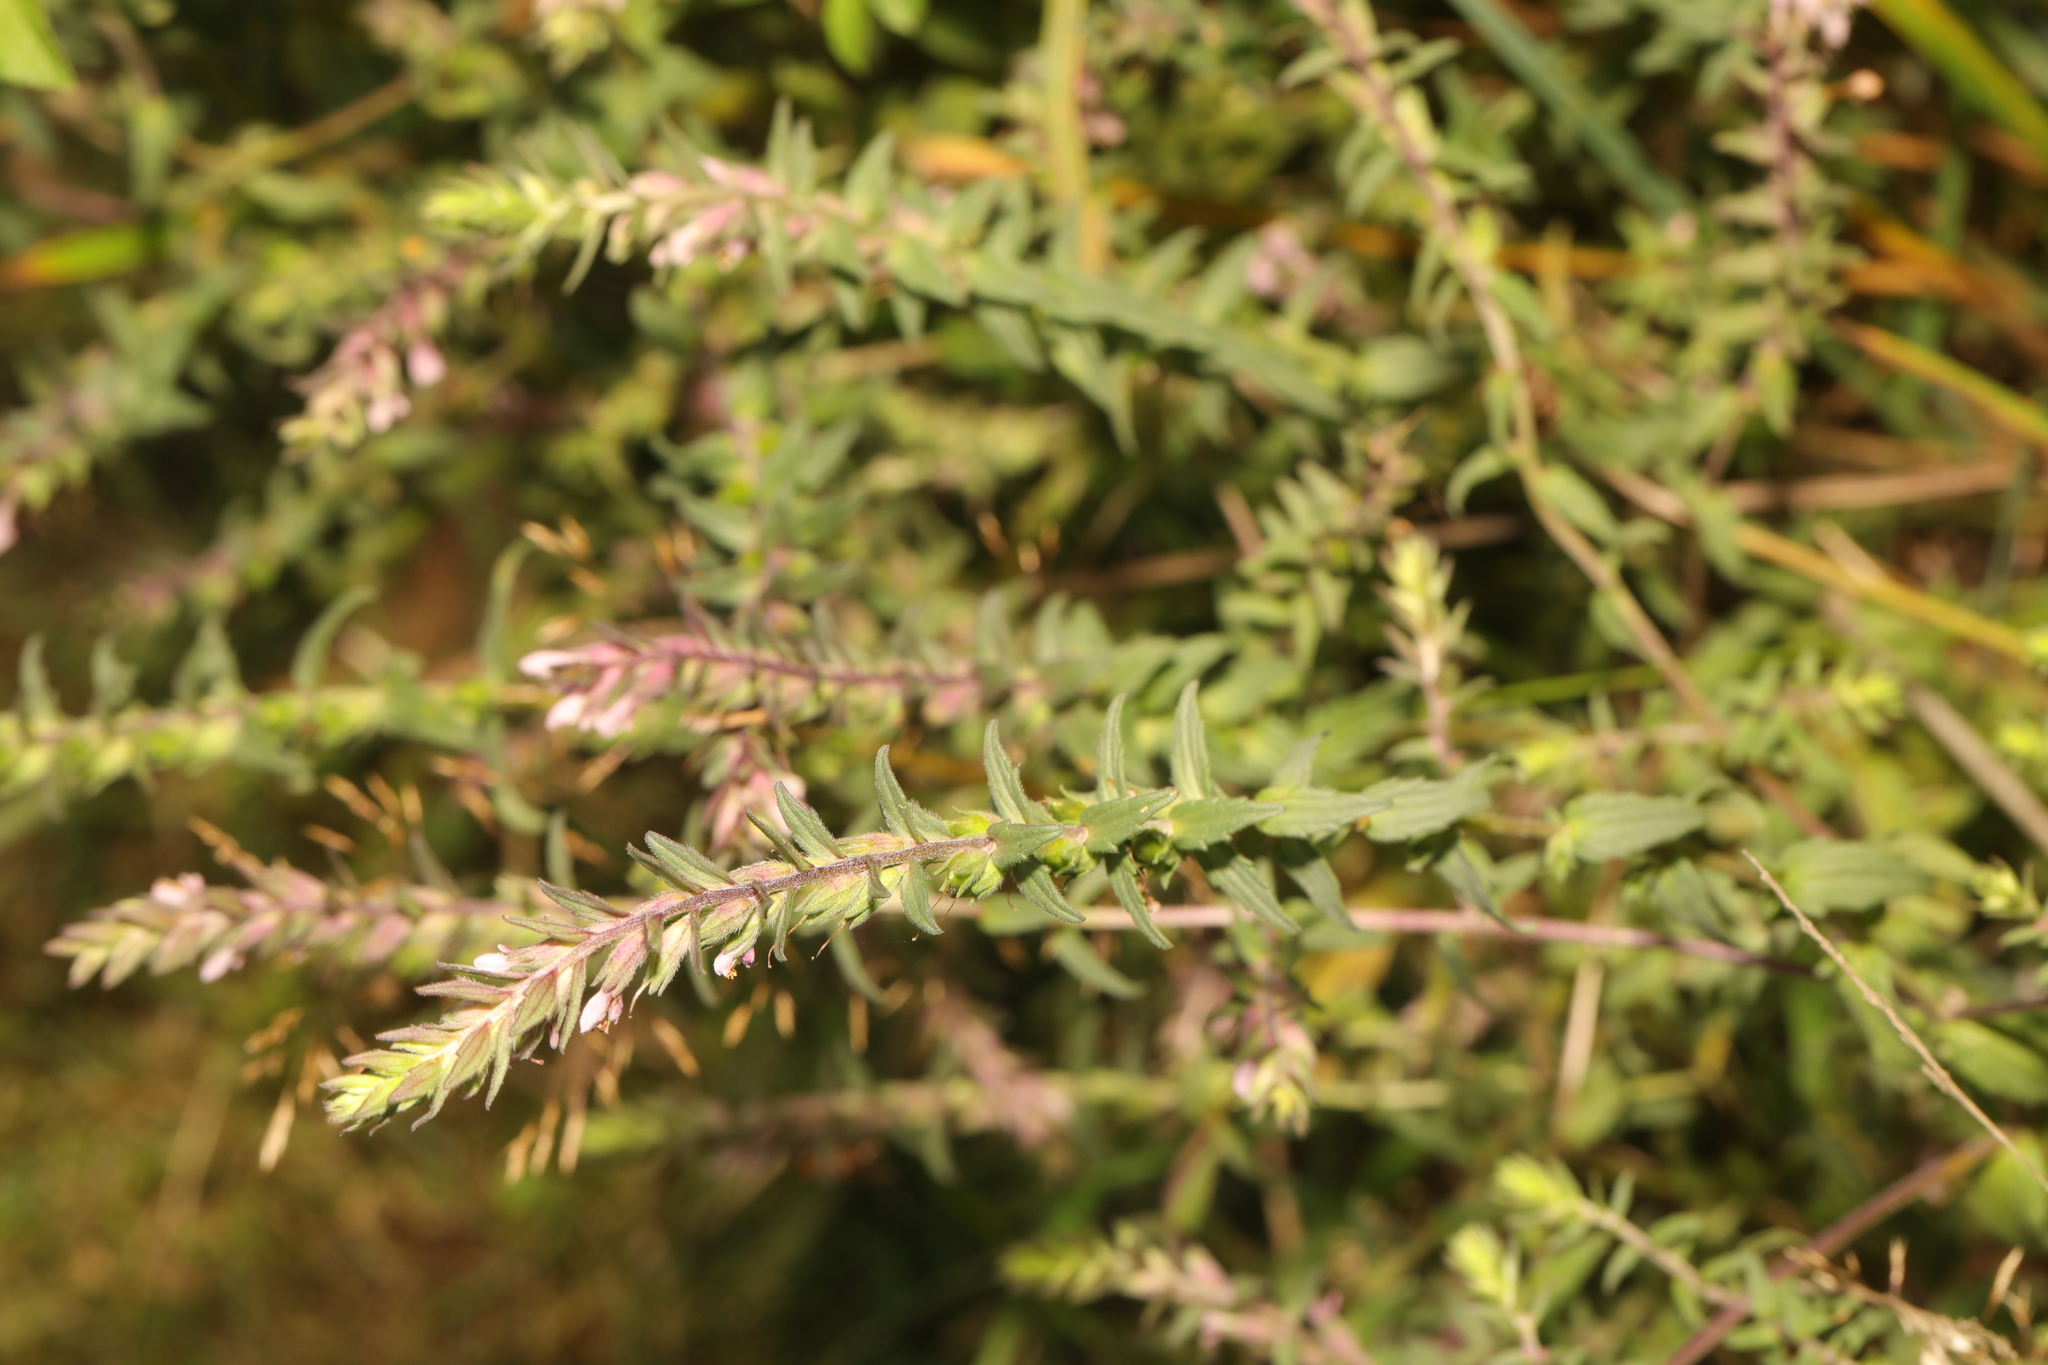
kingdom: Plantae
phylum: Tracheophyta
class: Magnoliopsida
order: Lamiales
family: Orobanchaceae
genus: Odontites
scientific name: Odontites vulgaris
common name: Broomrape
